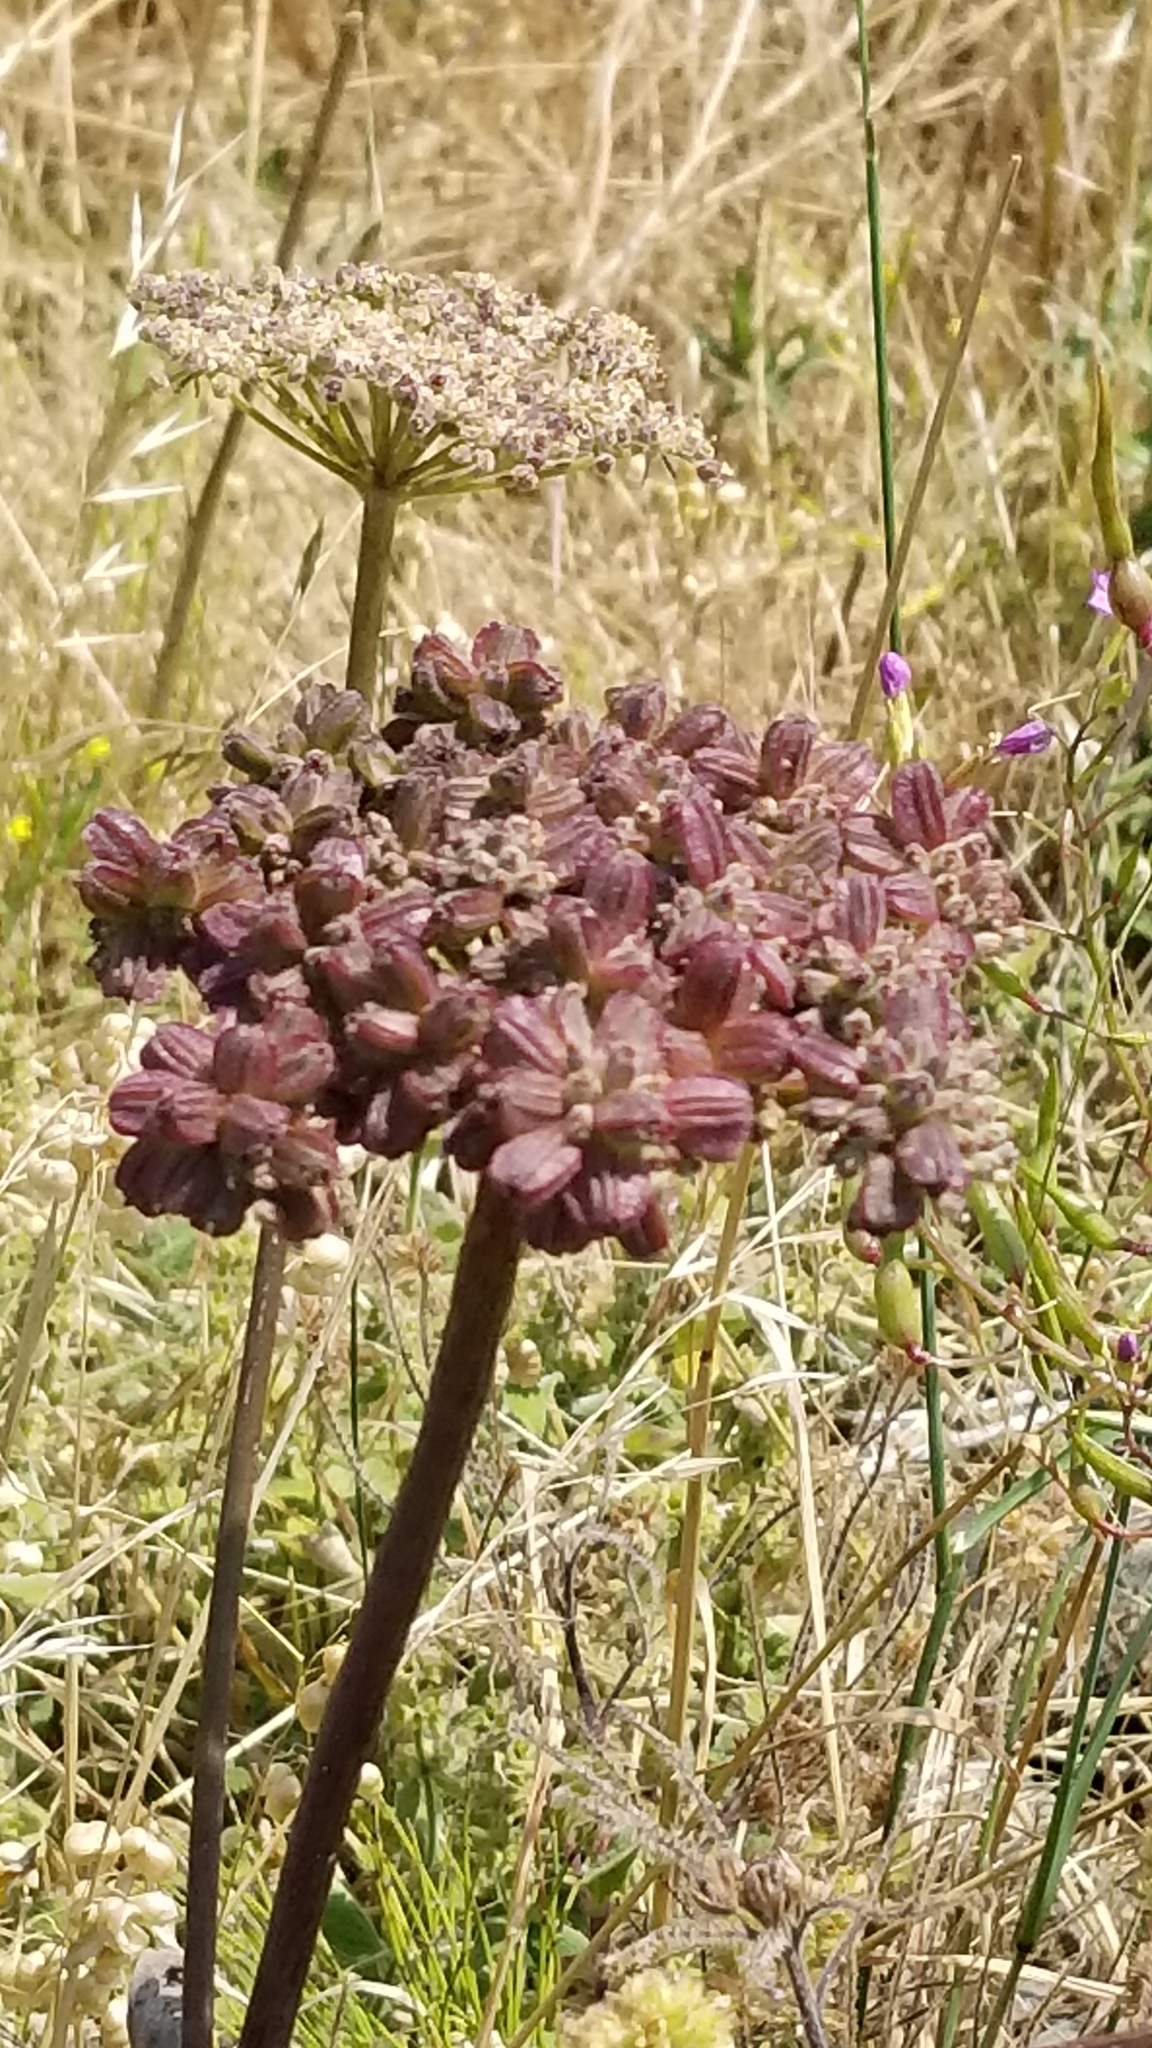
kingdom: Plantae
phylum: Tracheophyta
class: Magnoliopsida
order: Apiales
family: Apiaceae
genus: Angelica
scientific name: Angelica hendersonii
